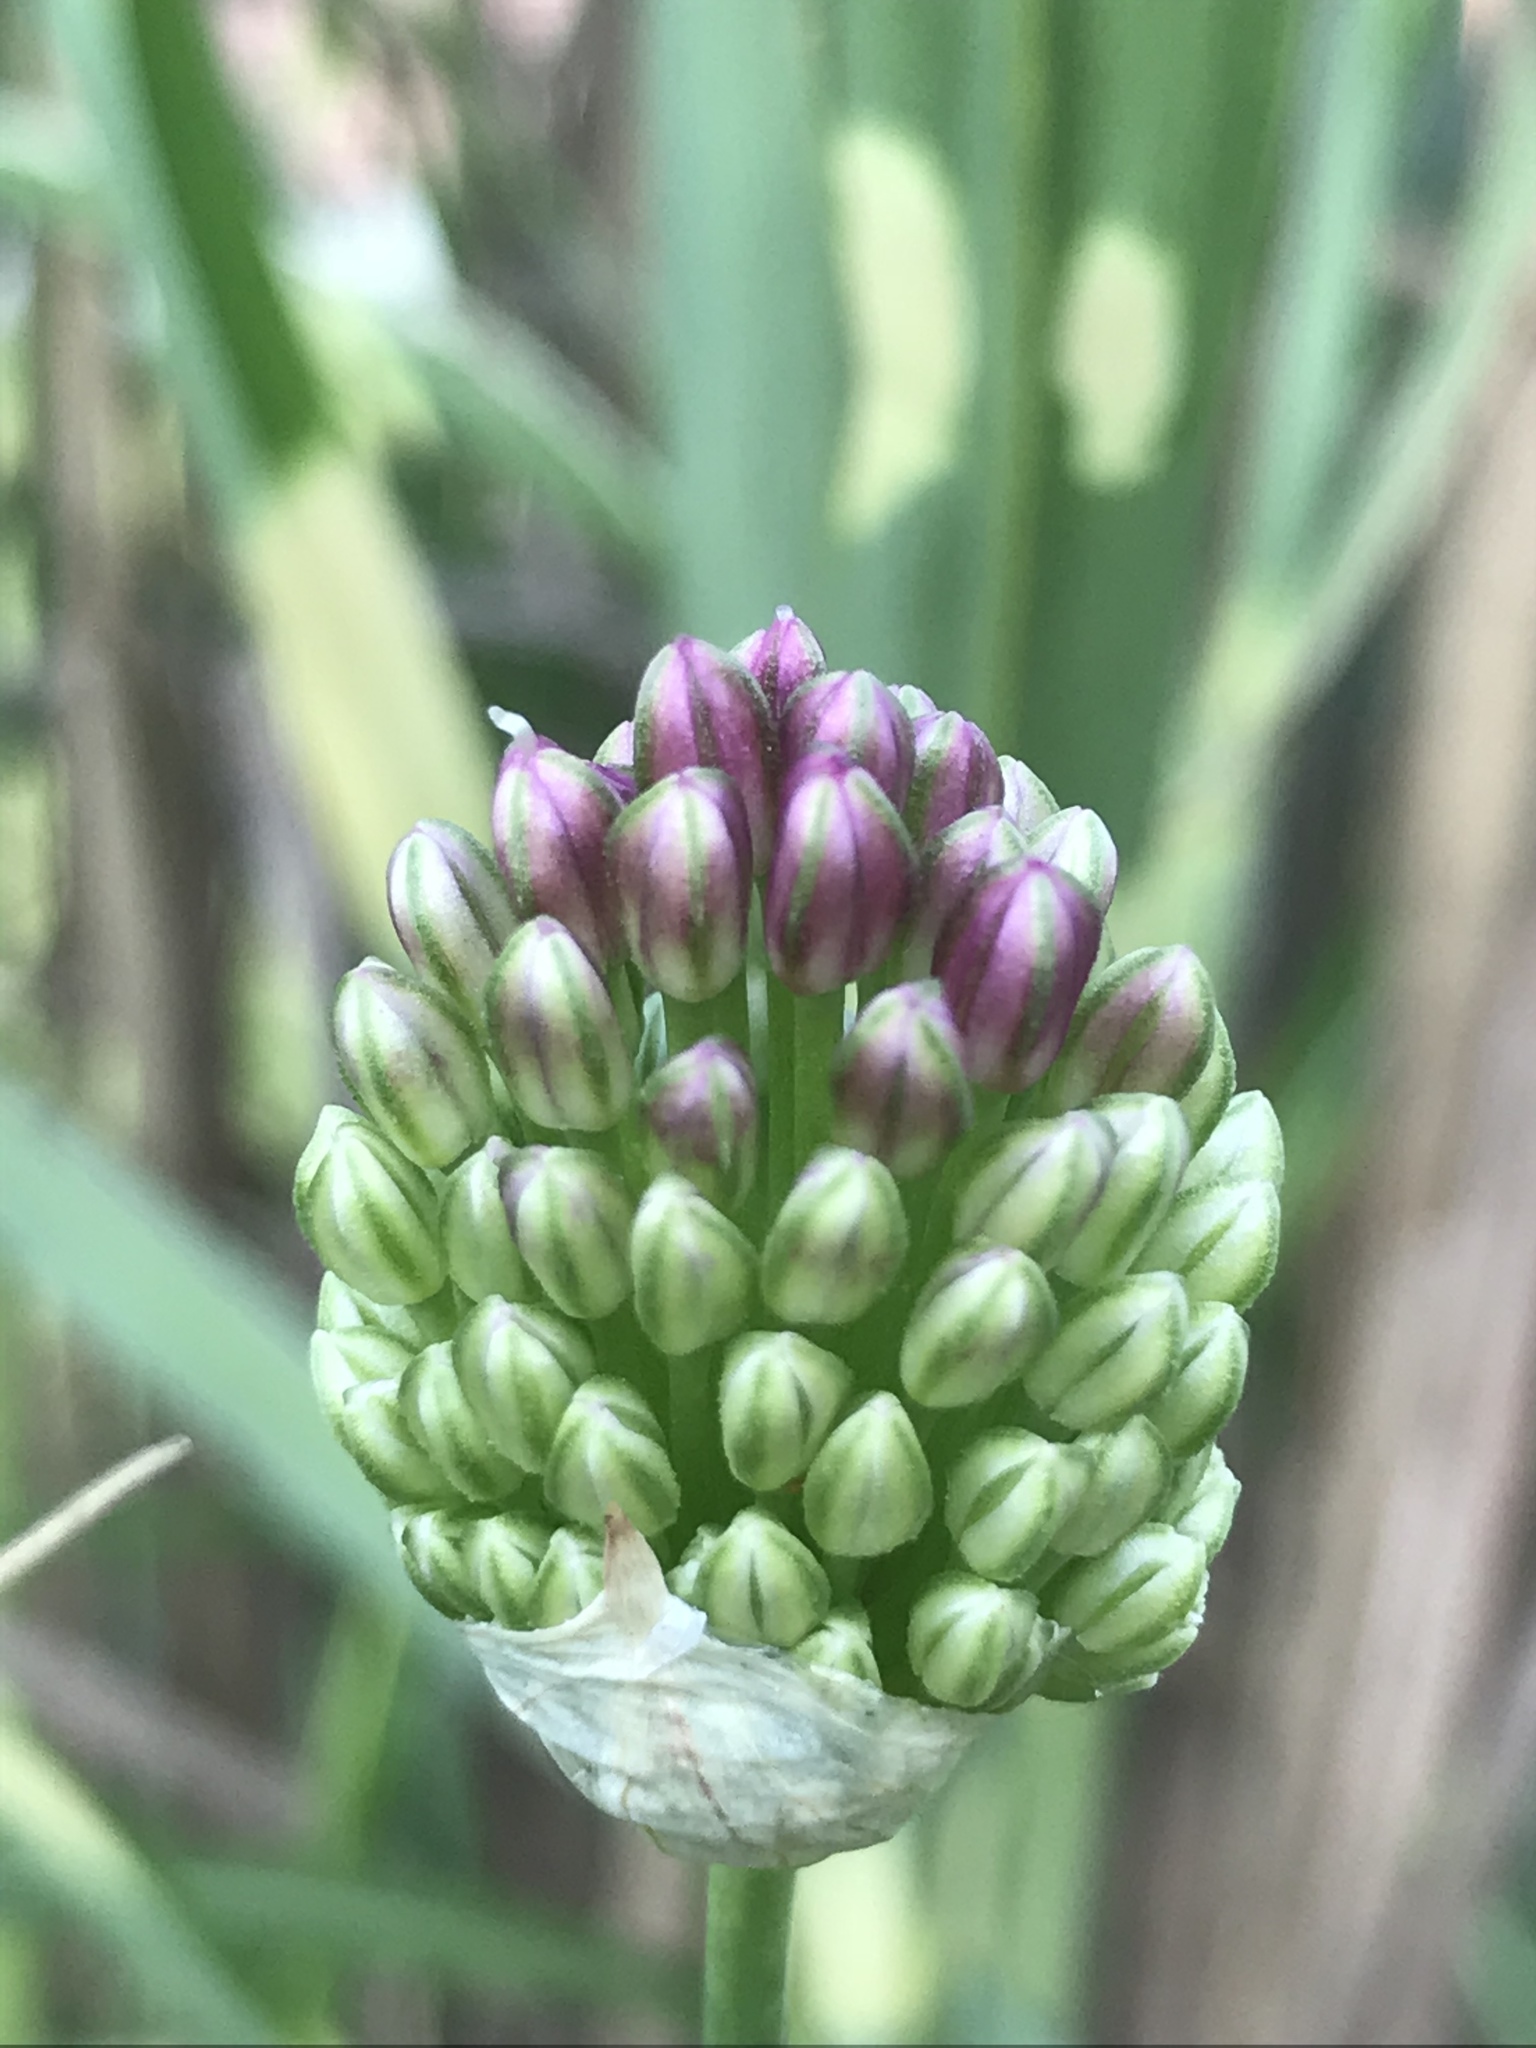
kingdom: Plantae
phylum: Tracheophyta
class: Liliopsida
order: Asparagales
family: Amaryllidaceae
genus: Allium
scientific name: Allium vineale
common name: Crow garlic
